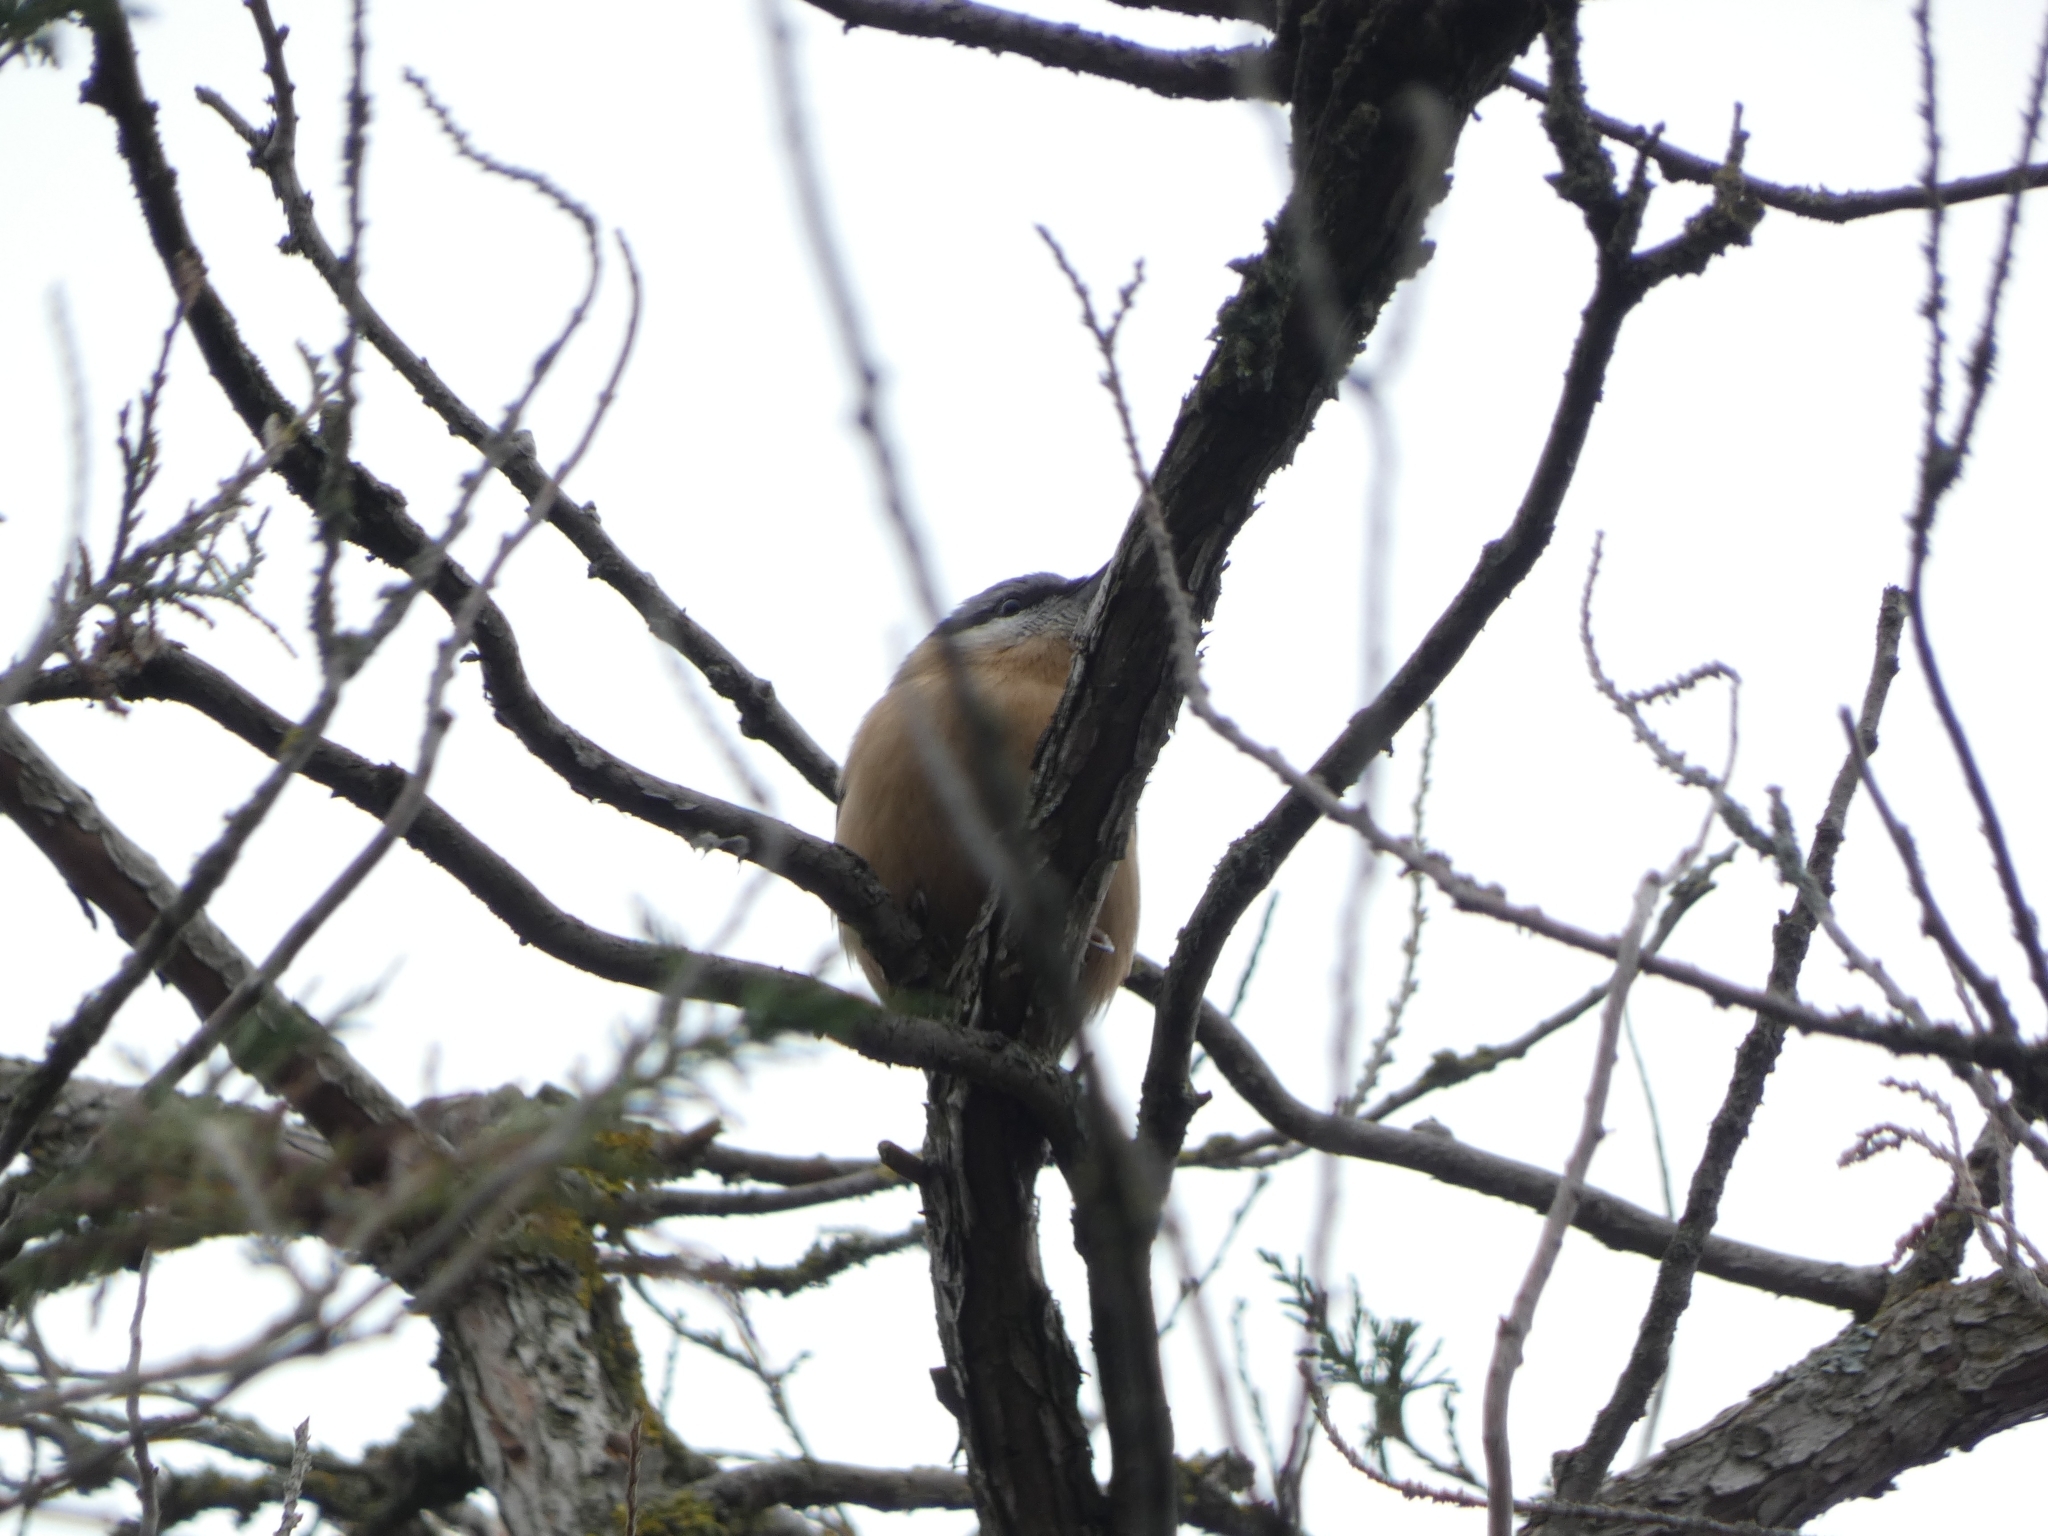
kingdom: Animalia
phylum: Chordata
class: Aves
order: Passeriformes
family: Sittidae
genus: Sitta
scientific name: Sitta europaea
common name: Eurasian nuthatch
